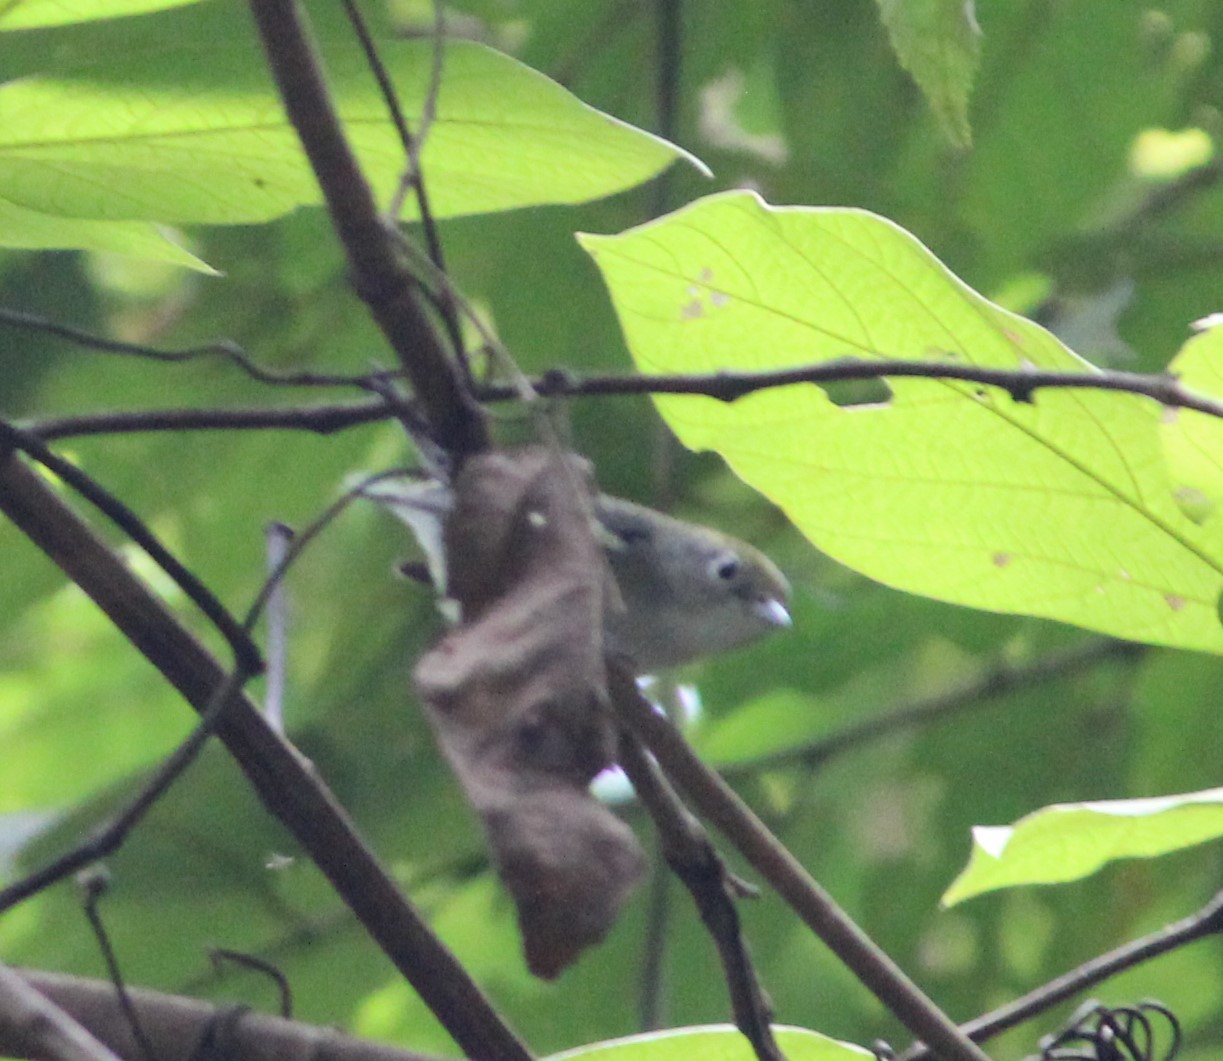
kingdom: Animalia
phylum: Chordata
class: Aves
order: Passeriformes
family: Parulidae
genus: Setophaga
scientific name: Setophaga pensylvanica
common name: Chestnut-sided warbler
